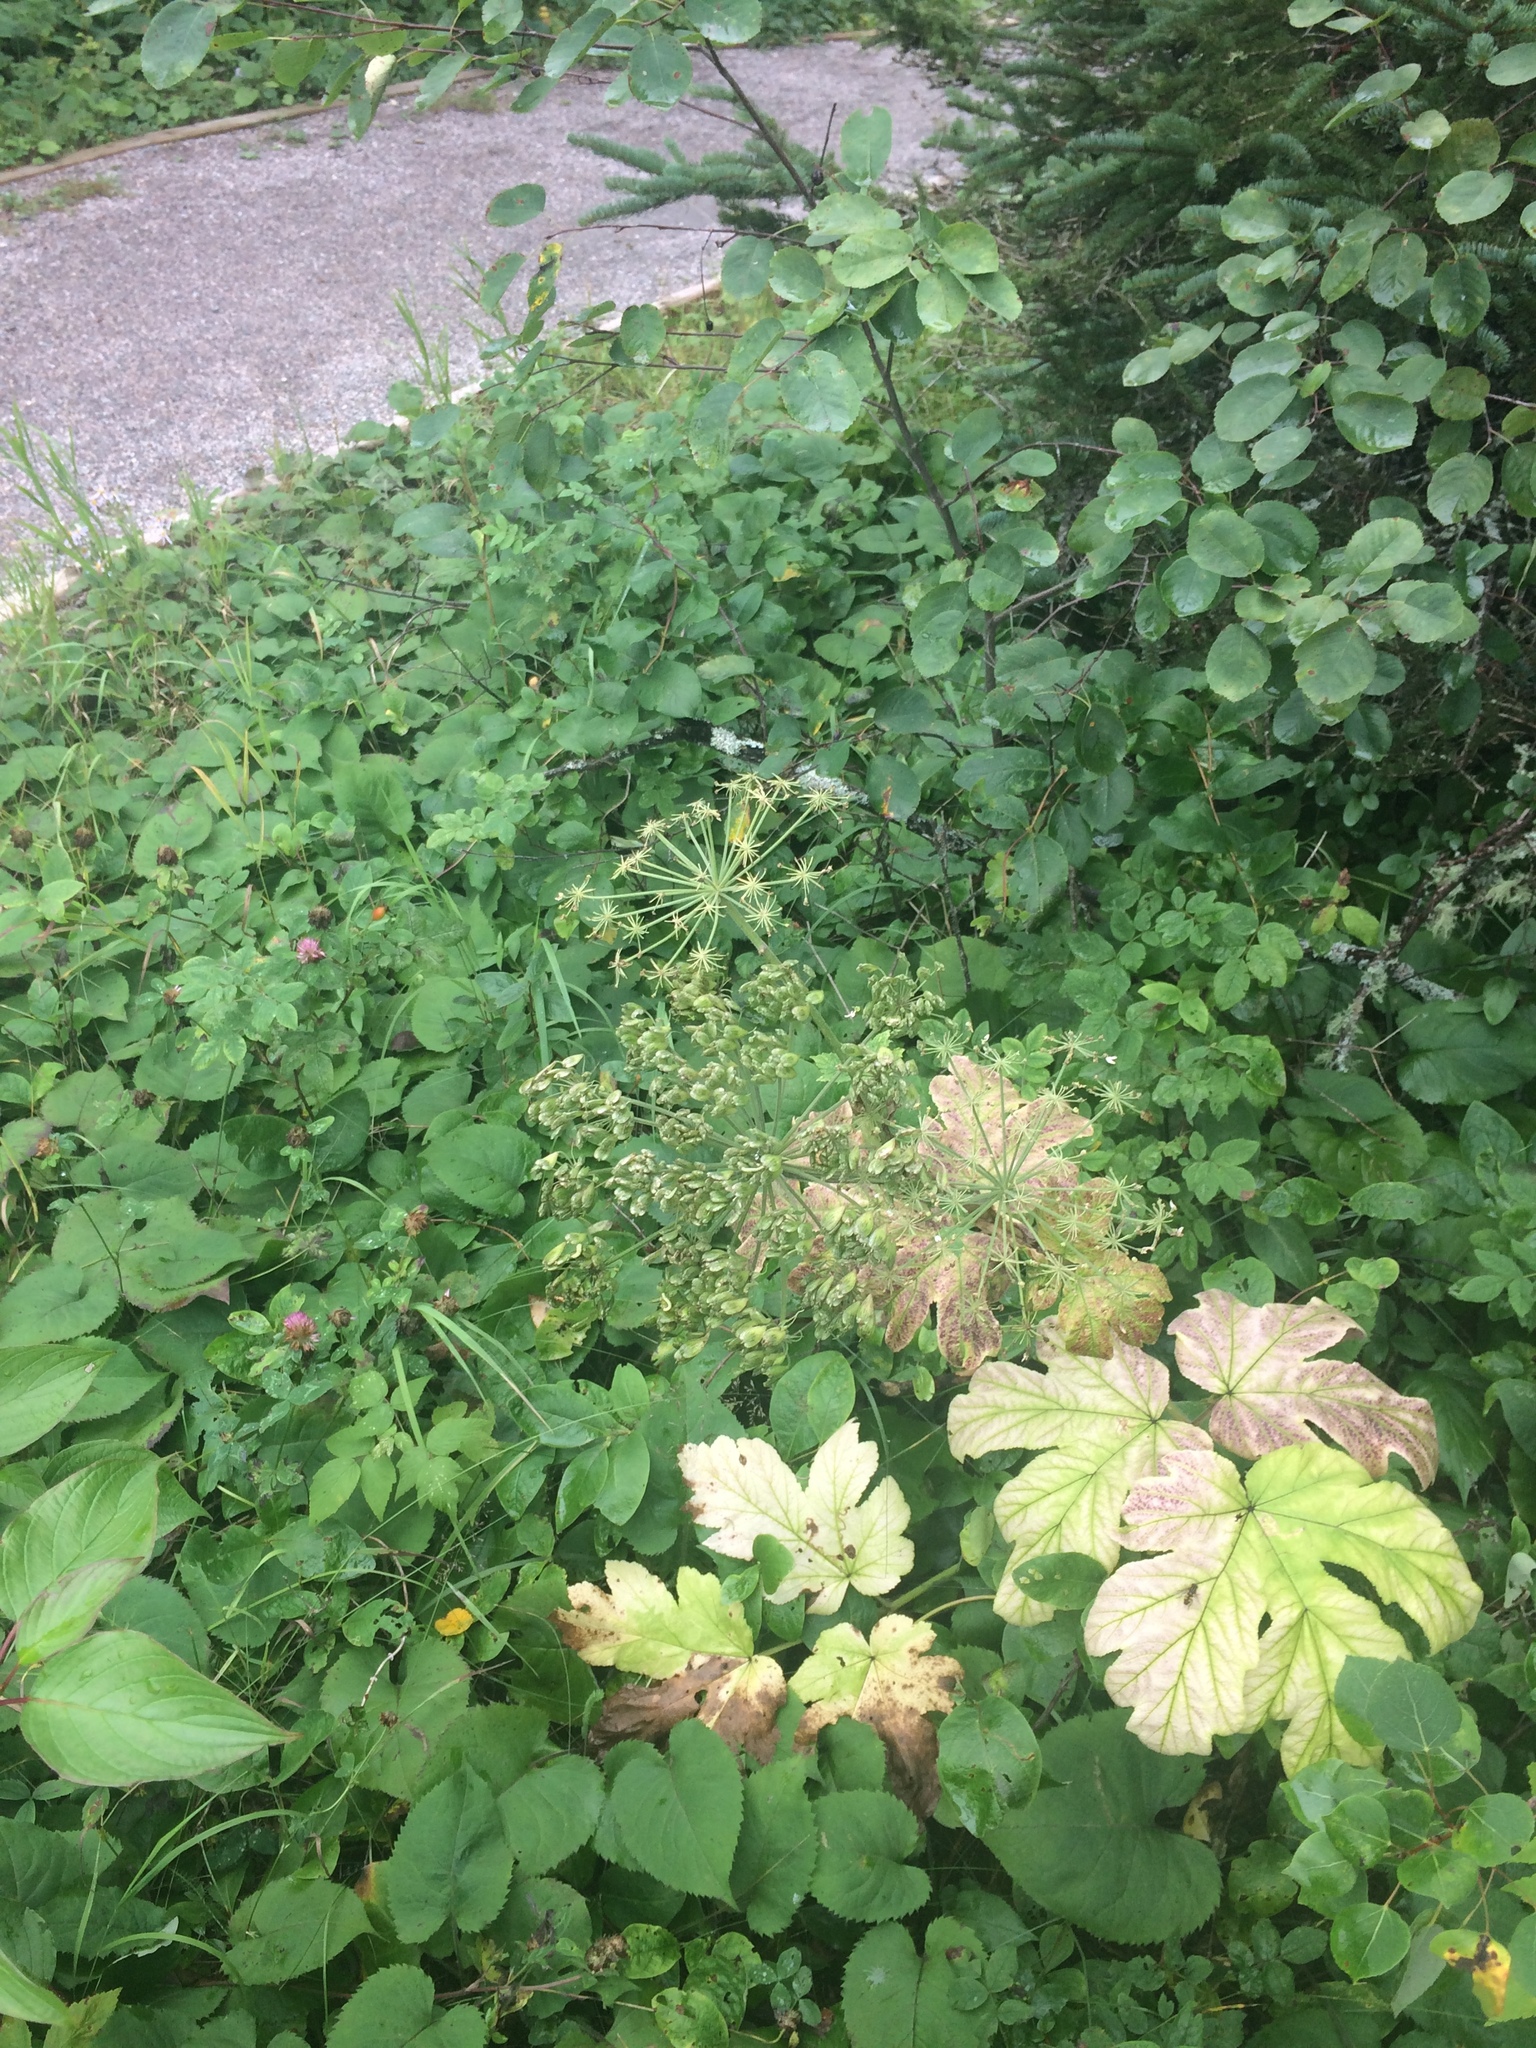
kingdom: Plantae
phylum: Tracheophyta
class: Magnoliopsida
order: Apiales
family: Apiaceae
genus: Heracleum
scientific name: Heracleum maximum
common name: American cow parsnip
